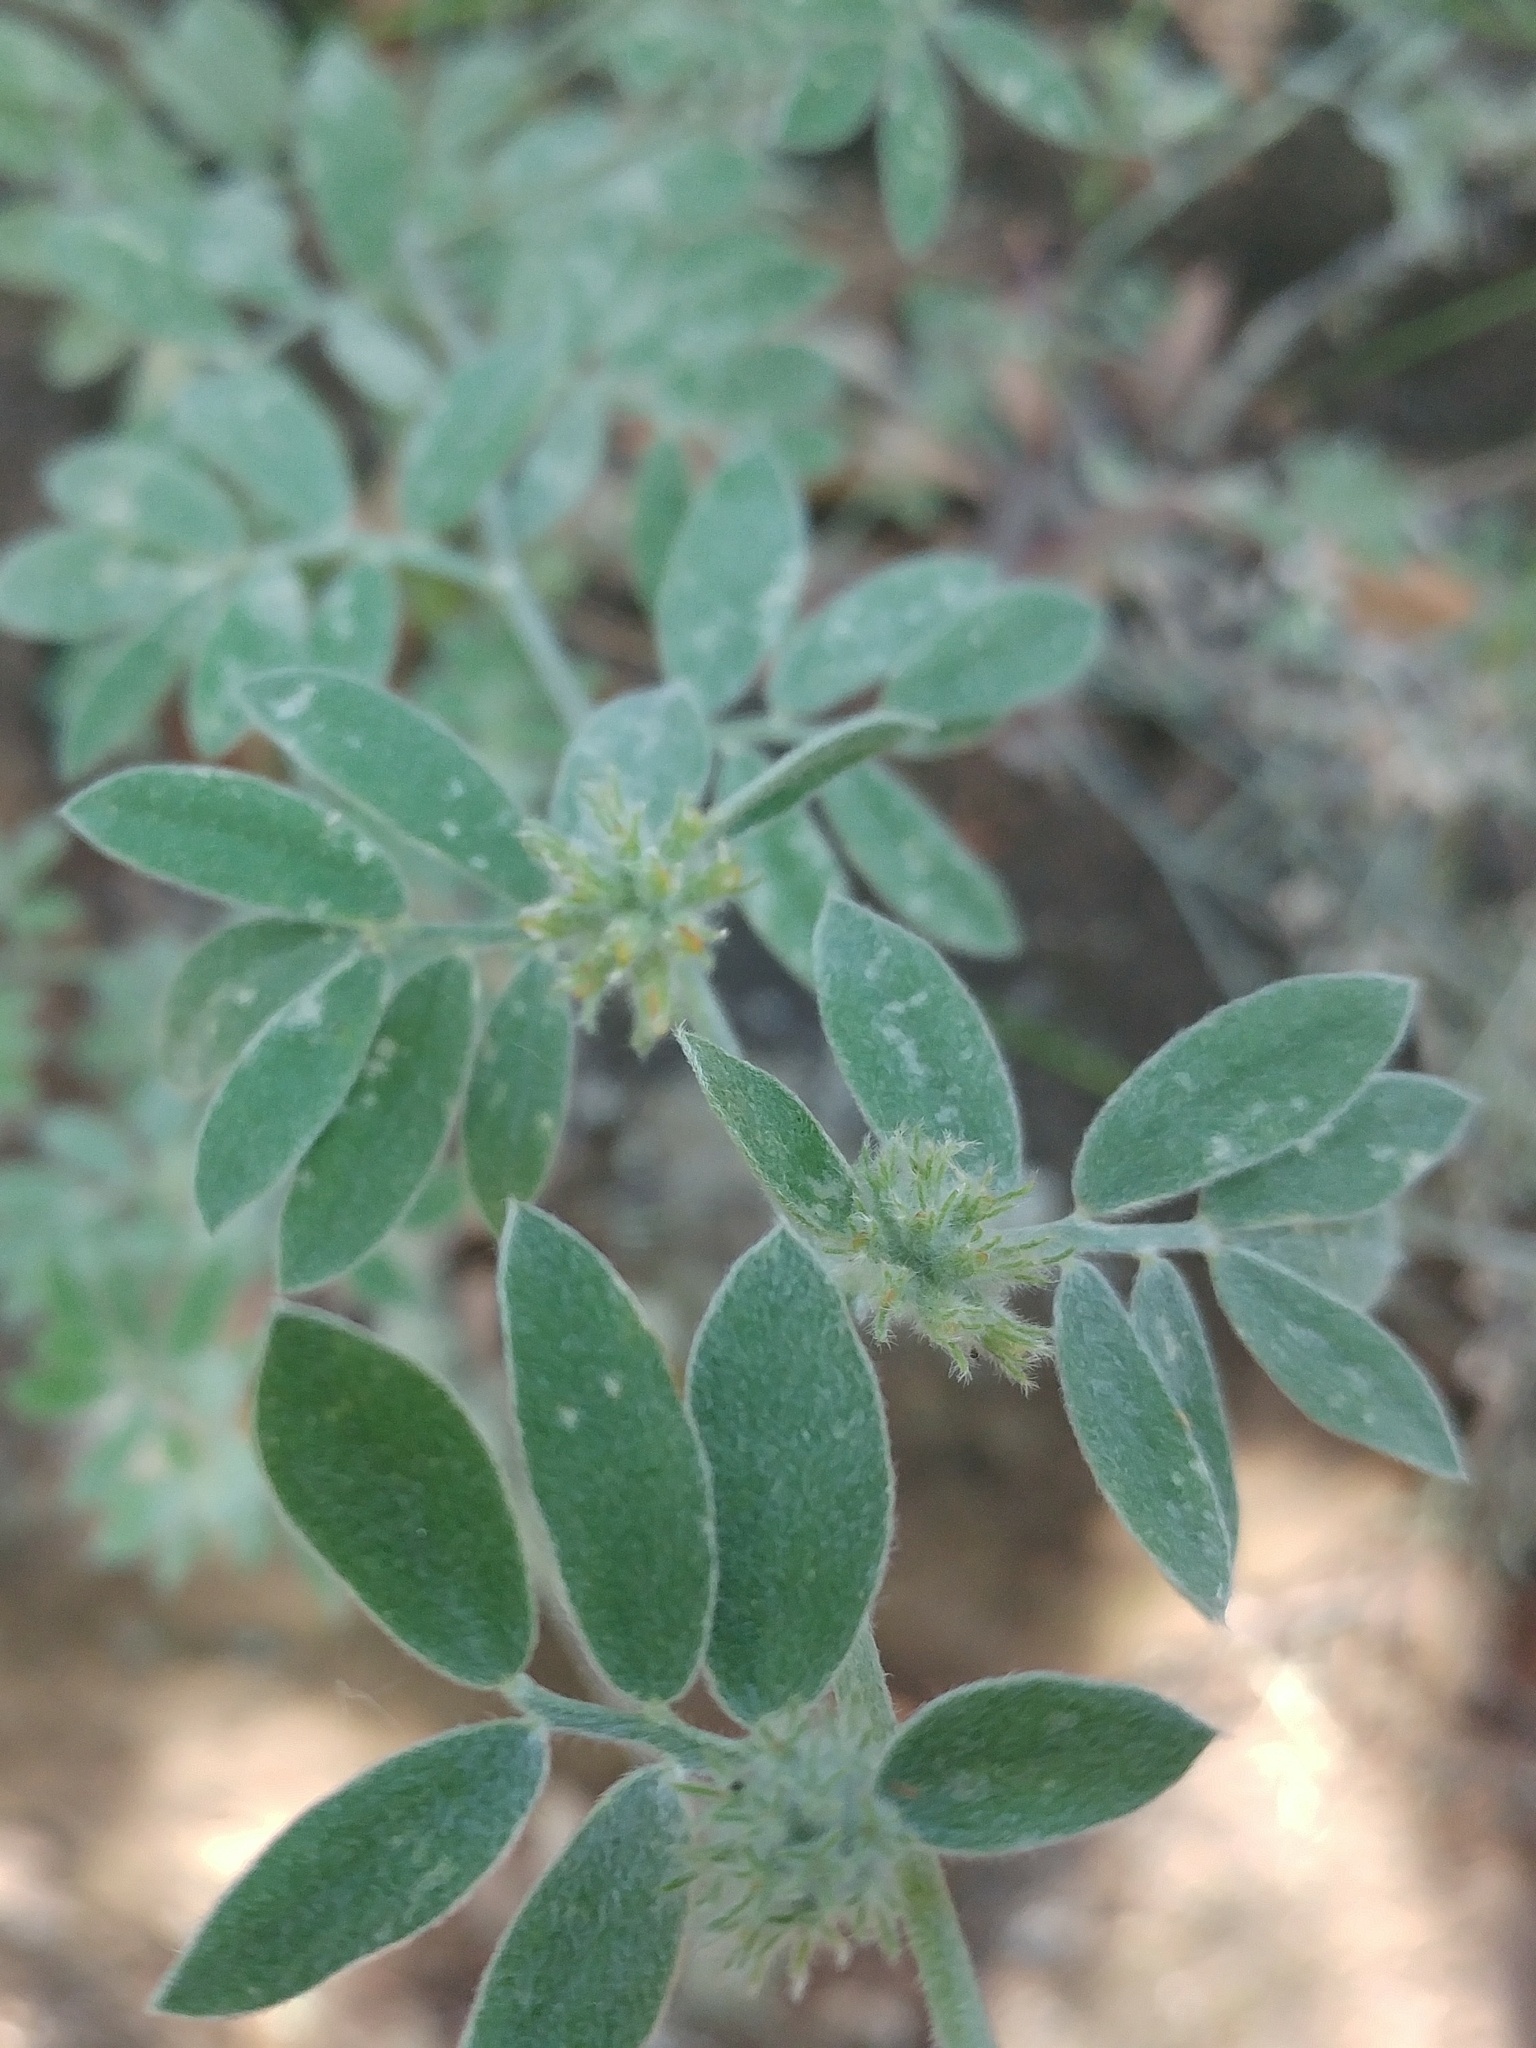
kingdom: Plantae
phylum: Tracheophyta
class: Magnoliopsida
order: Fabales
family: Fabaceae
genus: Acmispon
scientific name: Acmispon argophyllus
